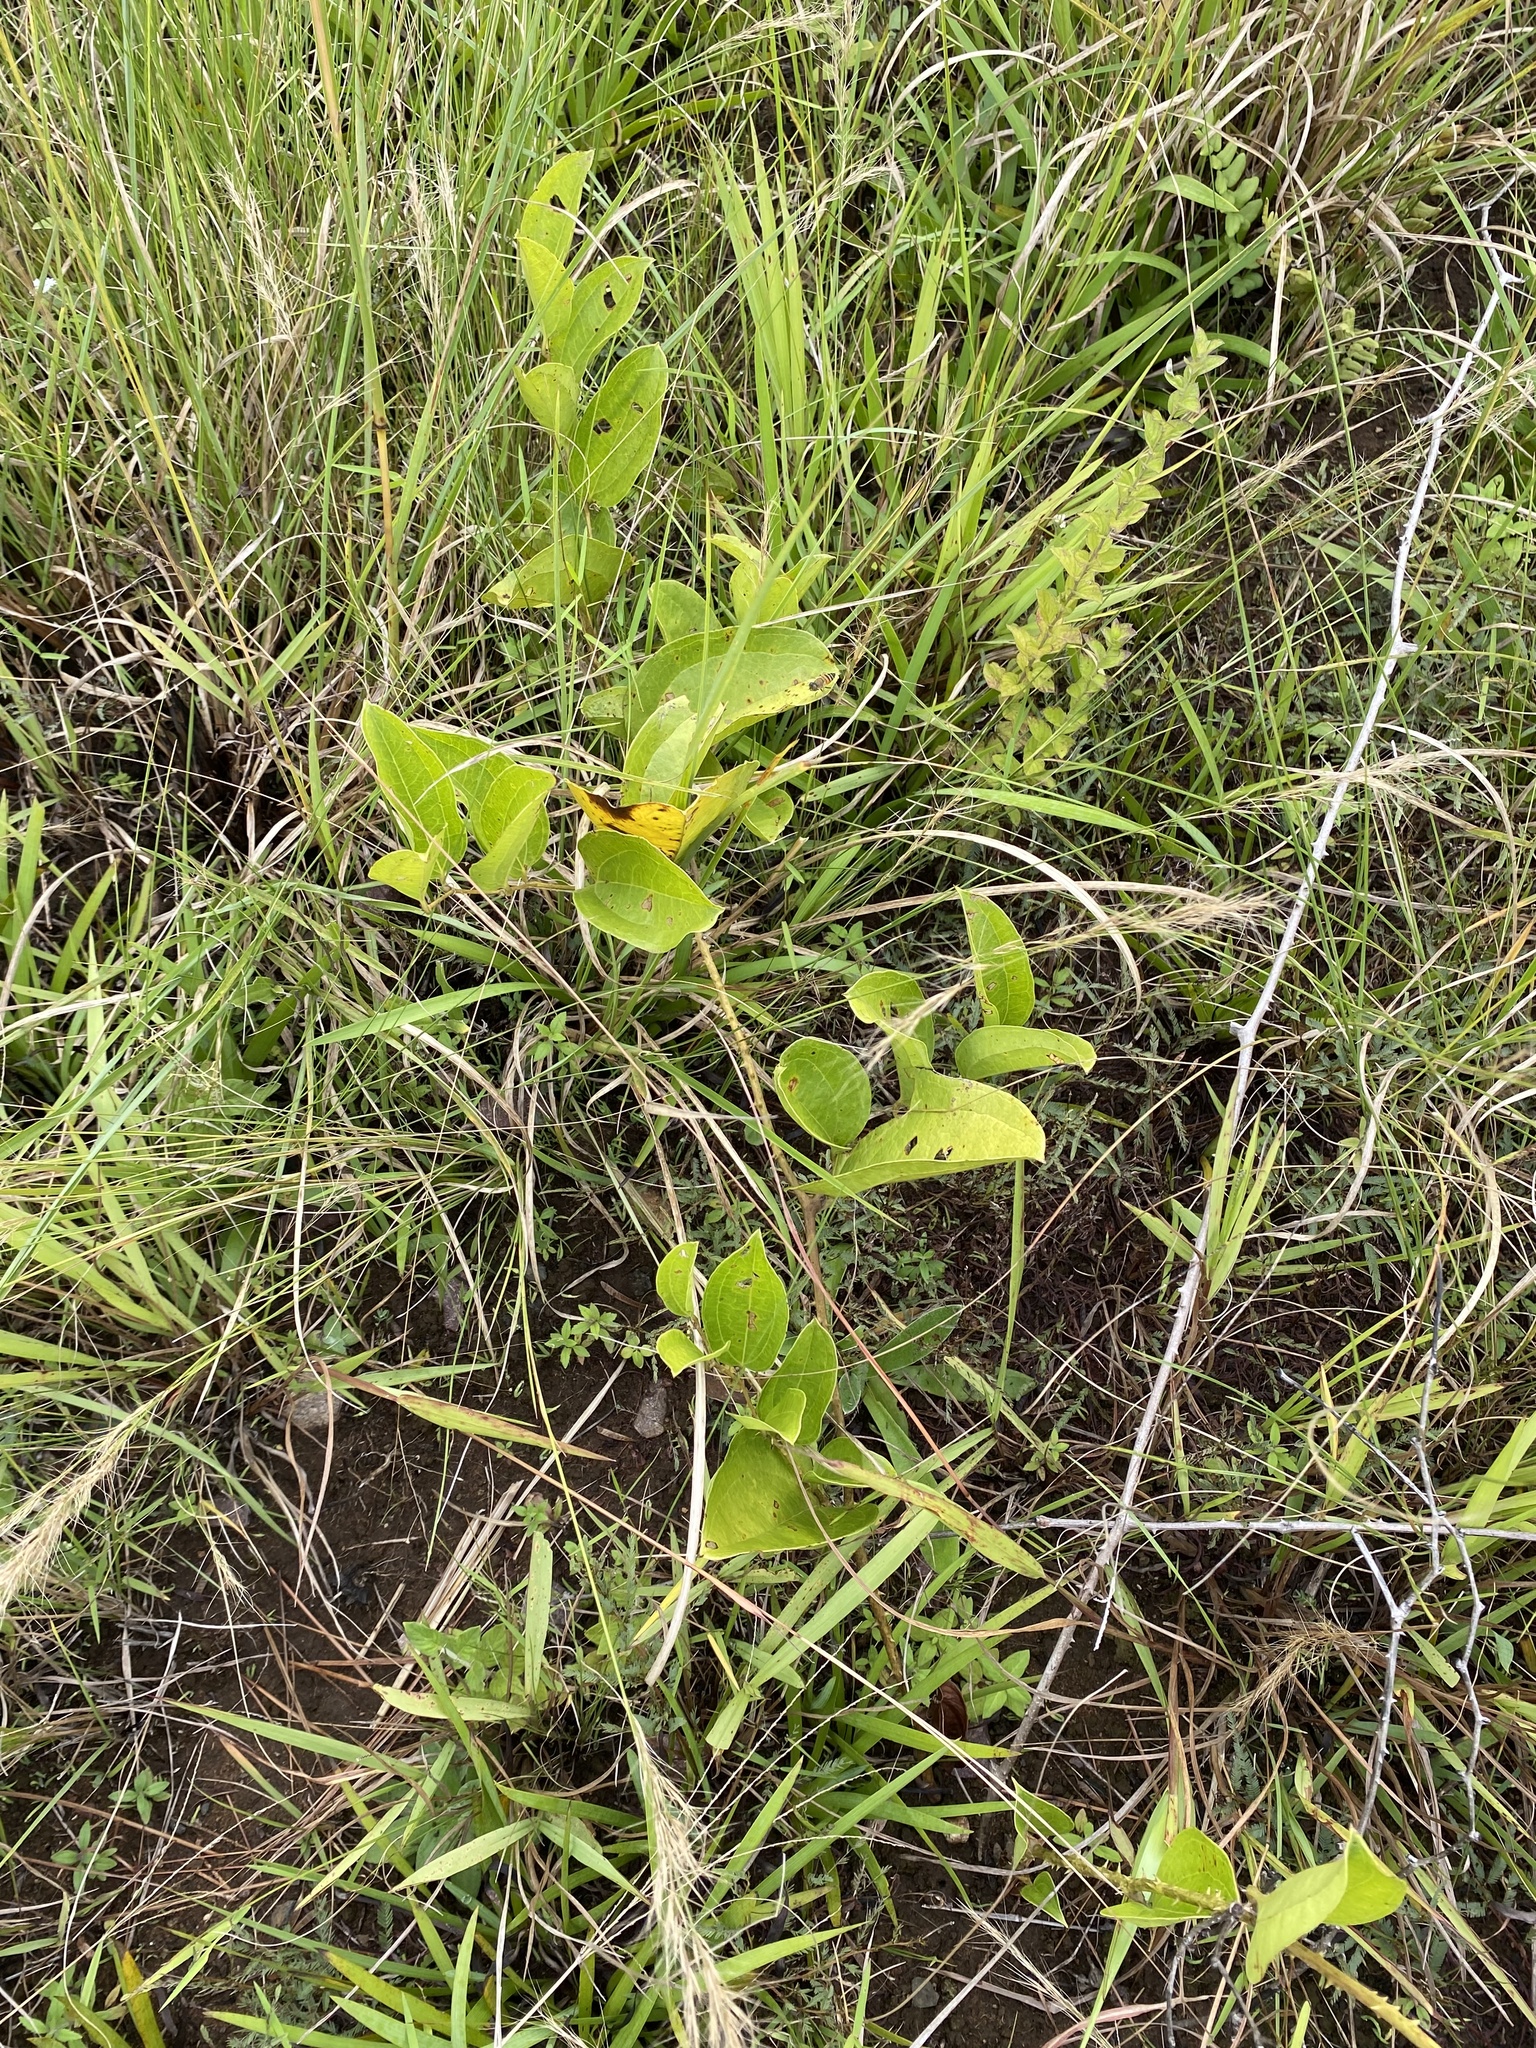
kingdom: Plantae
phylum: Tracheophyta
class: Liliopsida
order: Liliales
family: Smilacaceae
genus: Smilax
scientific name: Smilax anceps
